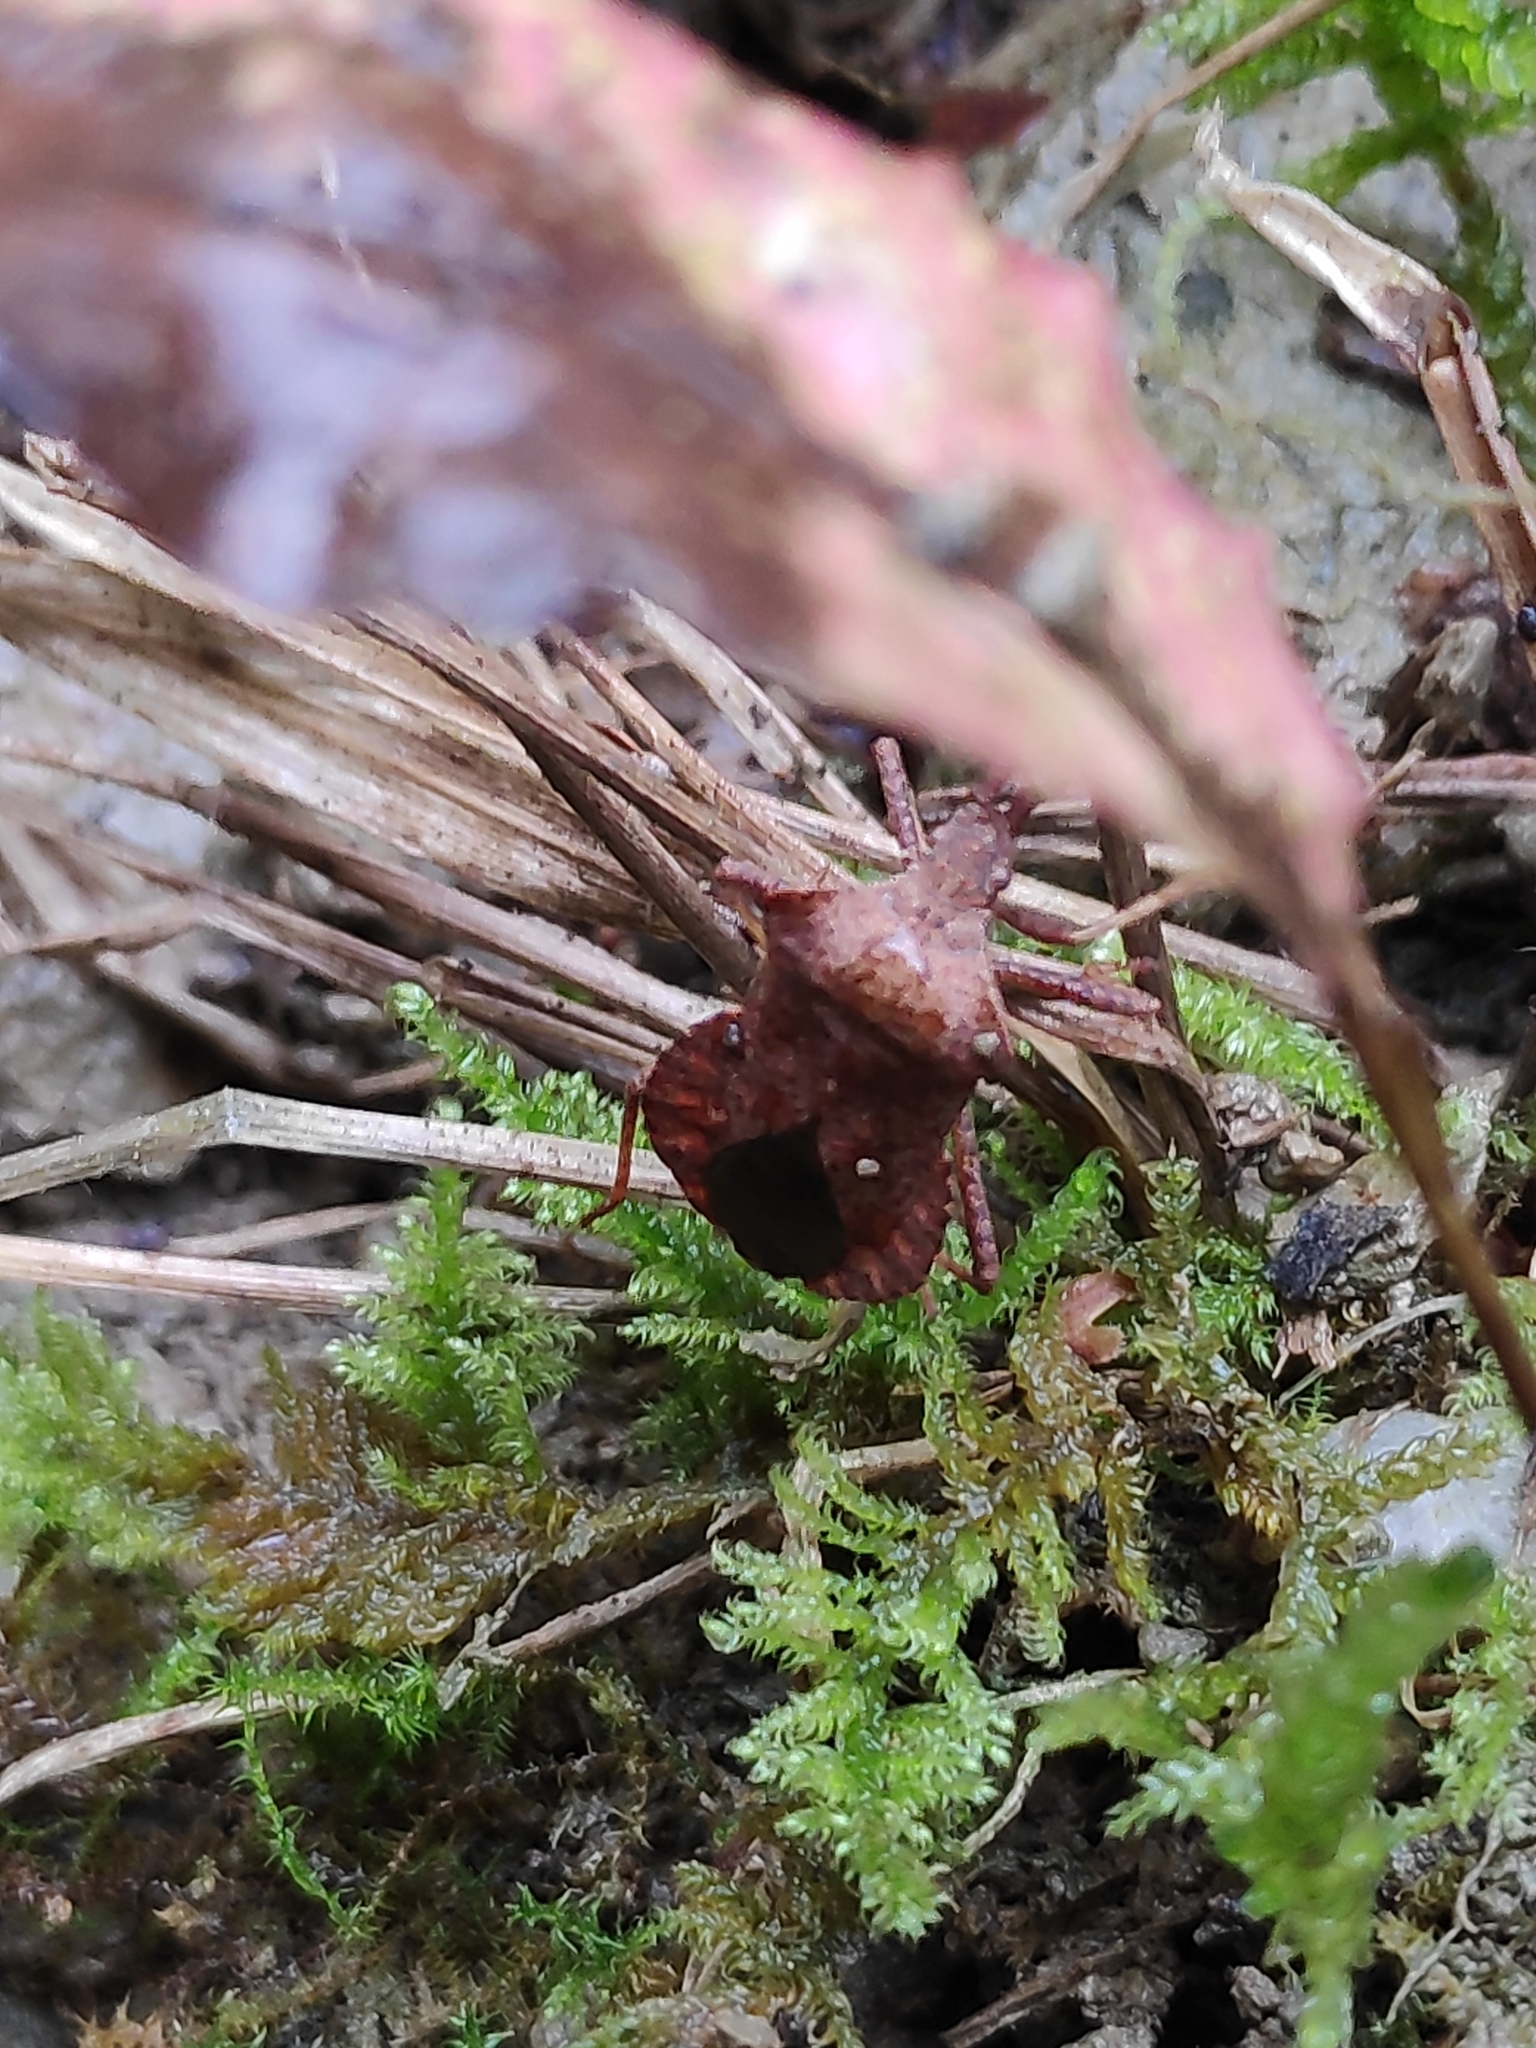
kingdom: Animalia
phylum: Arthropoda
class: Insecta
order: Hemiptera
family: Coreidae
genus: Coreus
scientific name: Coreus marginatus
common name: Dock bug
